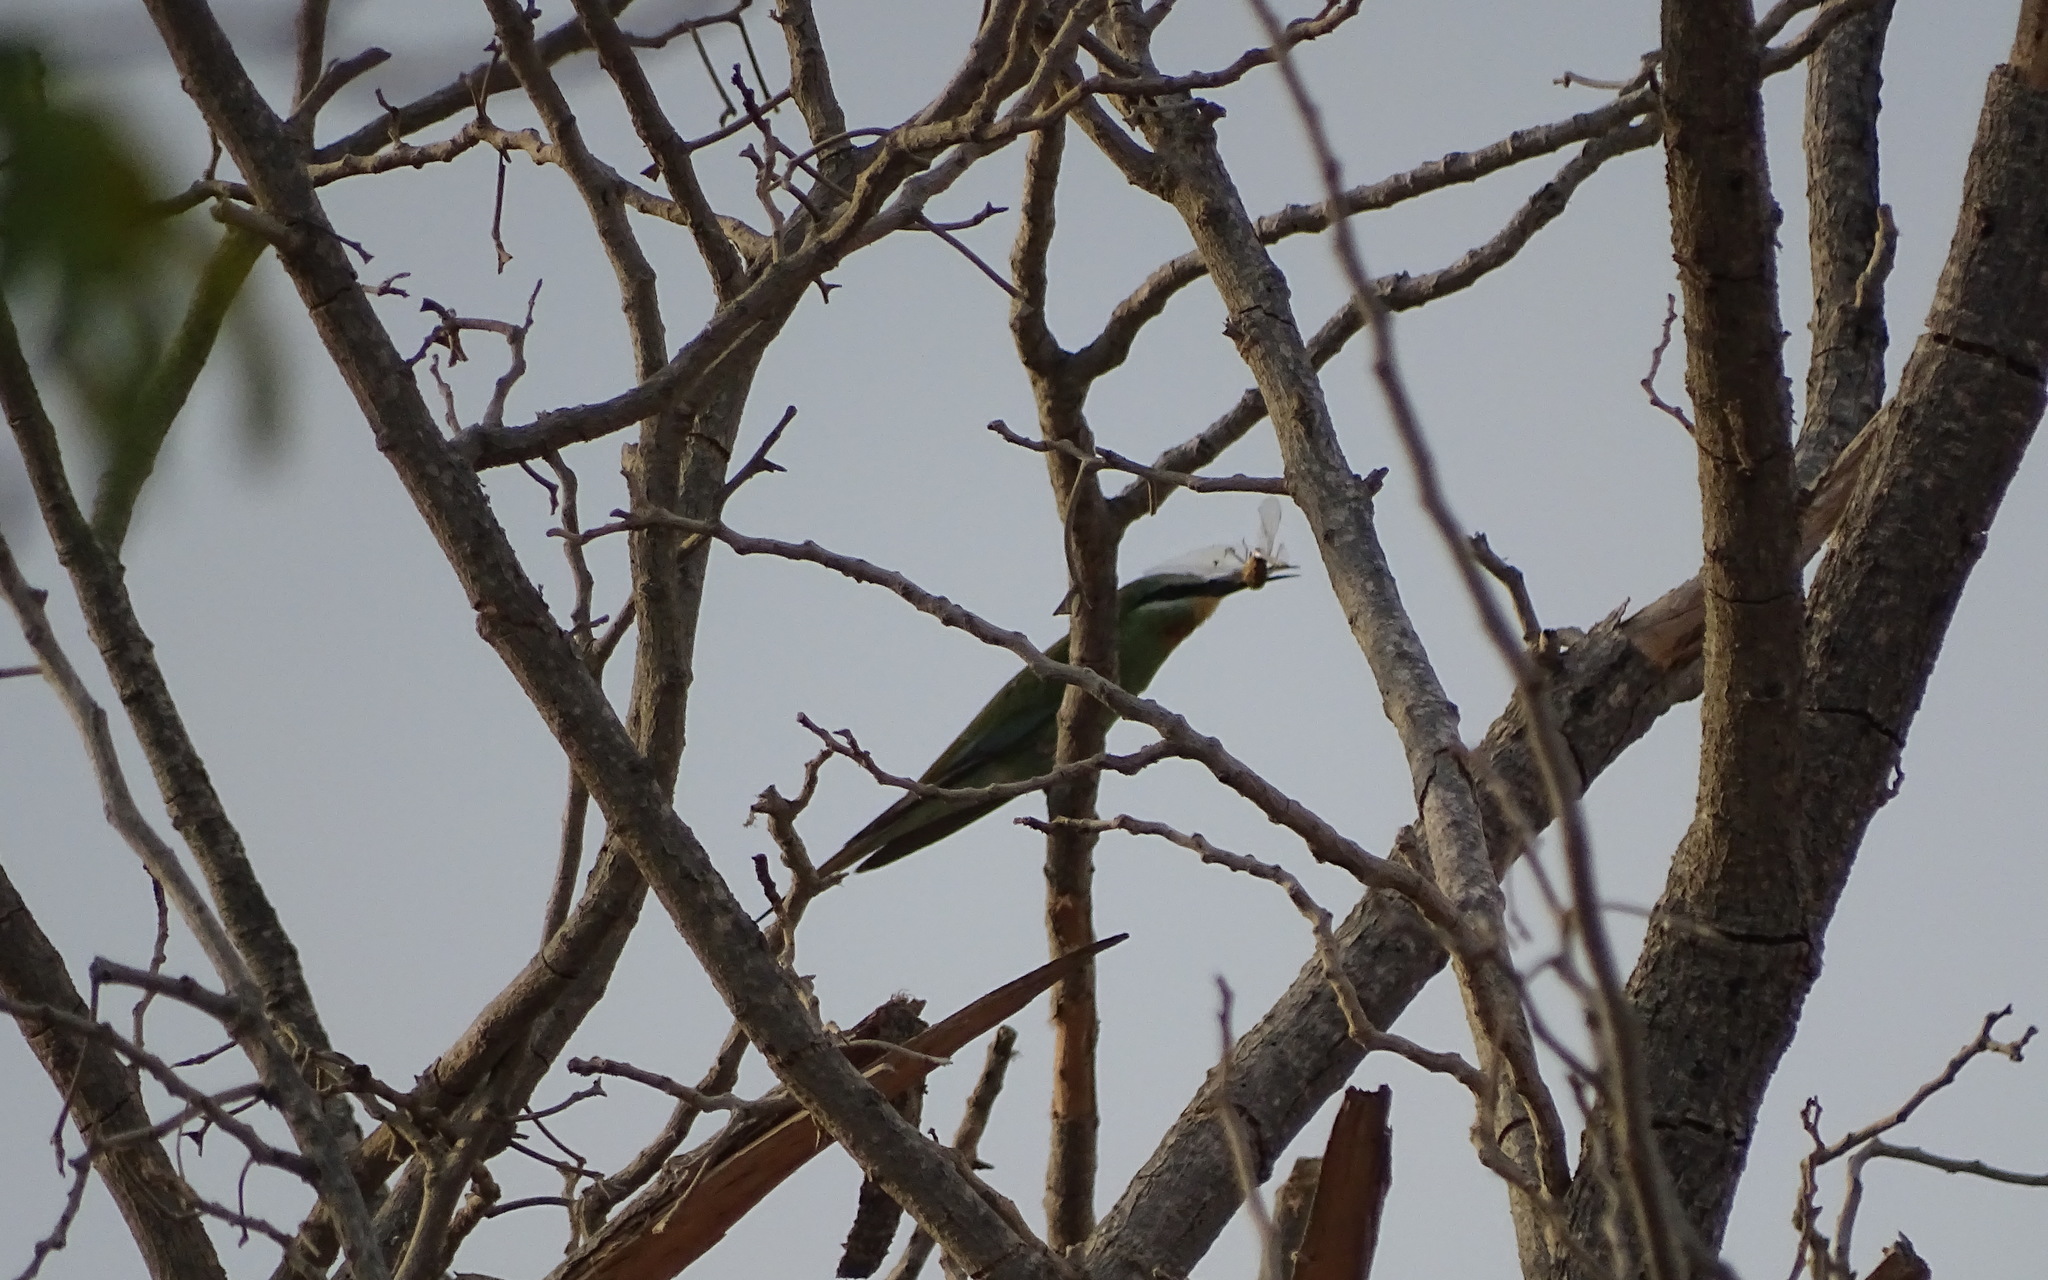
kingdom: Animalia
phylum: Chordata
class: Aves
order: Coraciiformes
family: Meropidae
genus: Merops
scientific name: Merops persicus
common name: Blue-cheeked bee-eater
